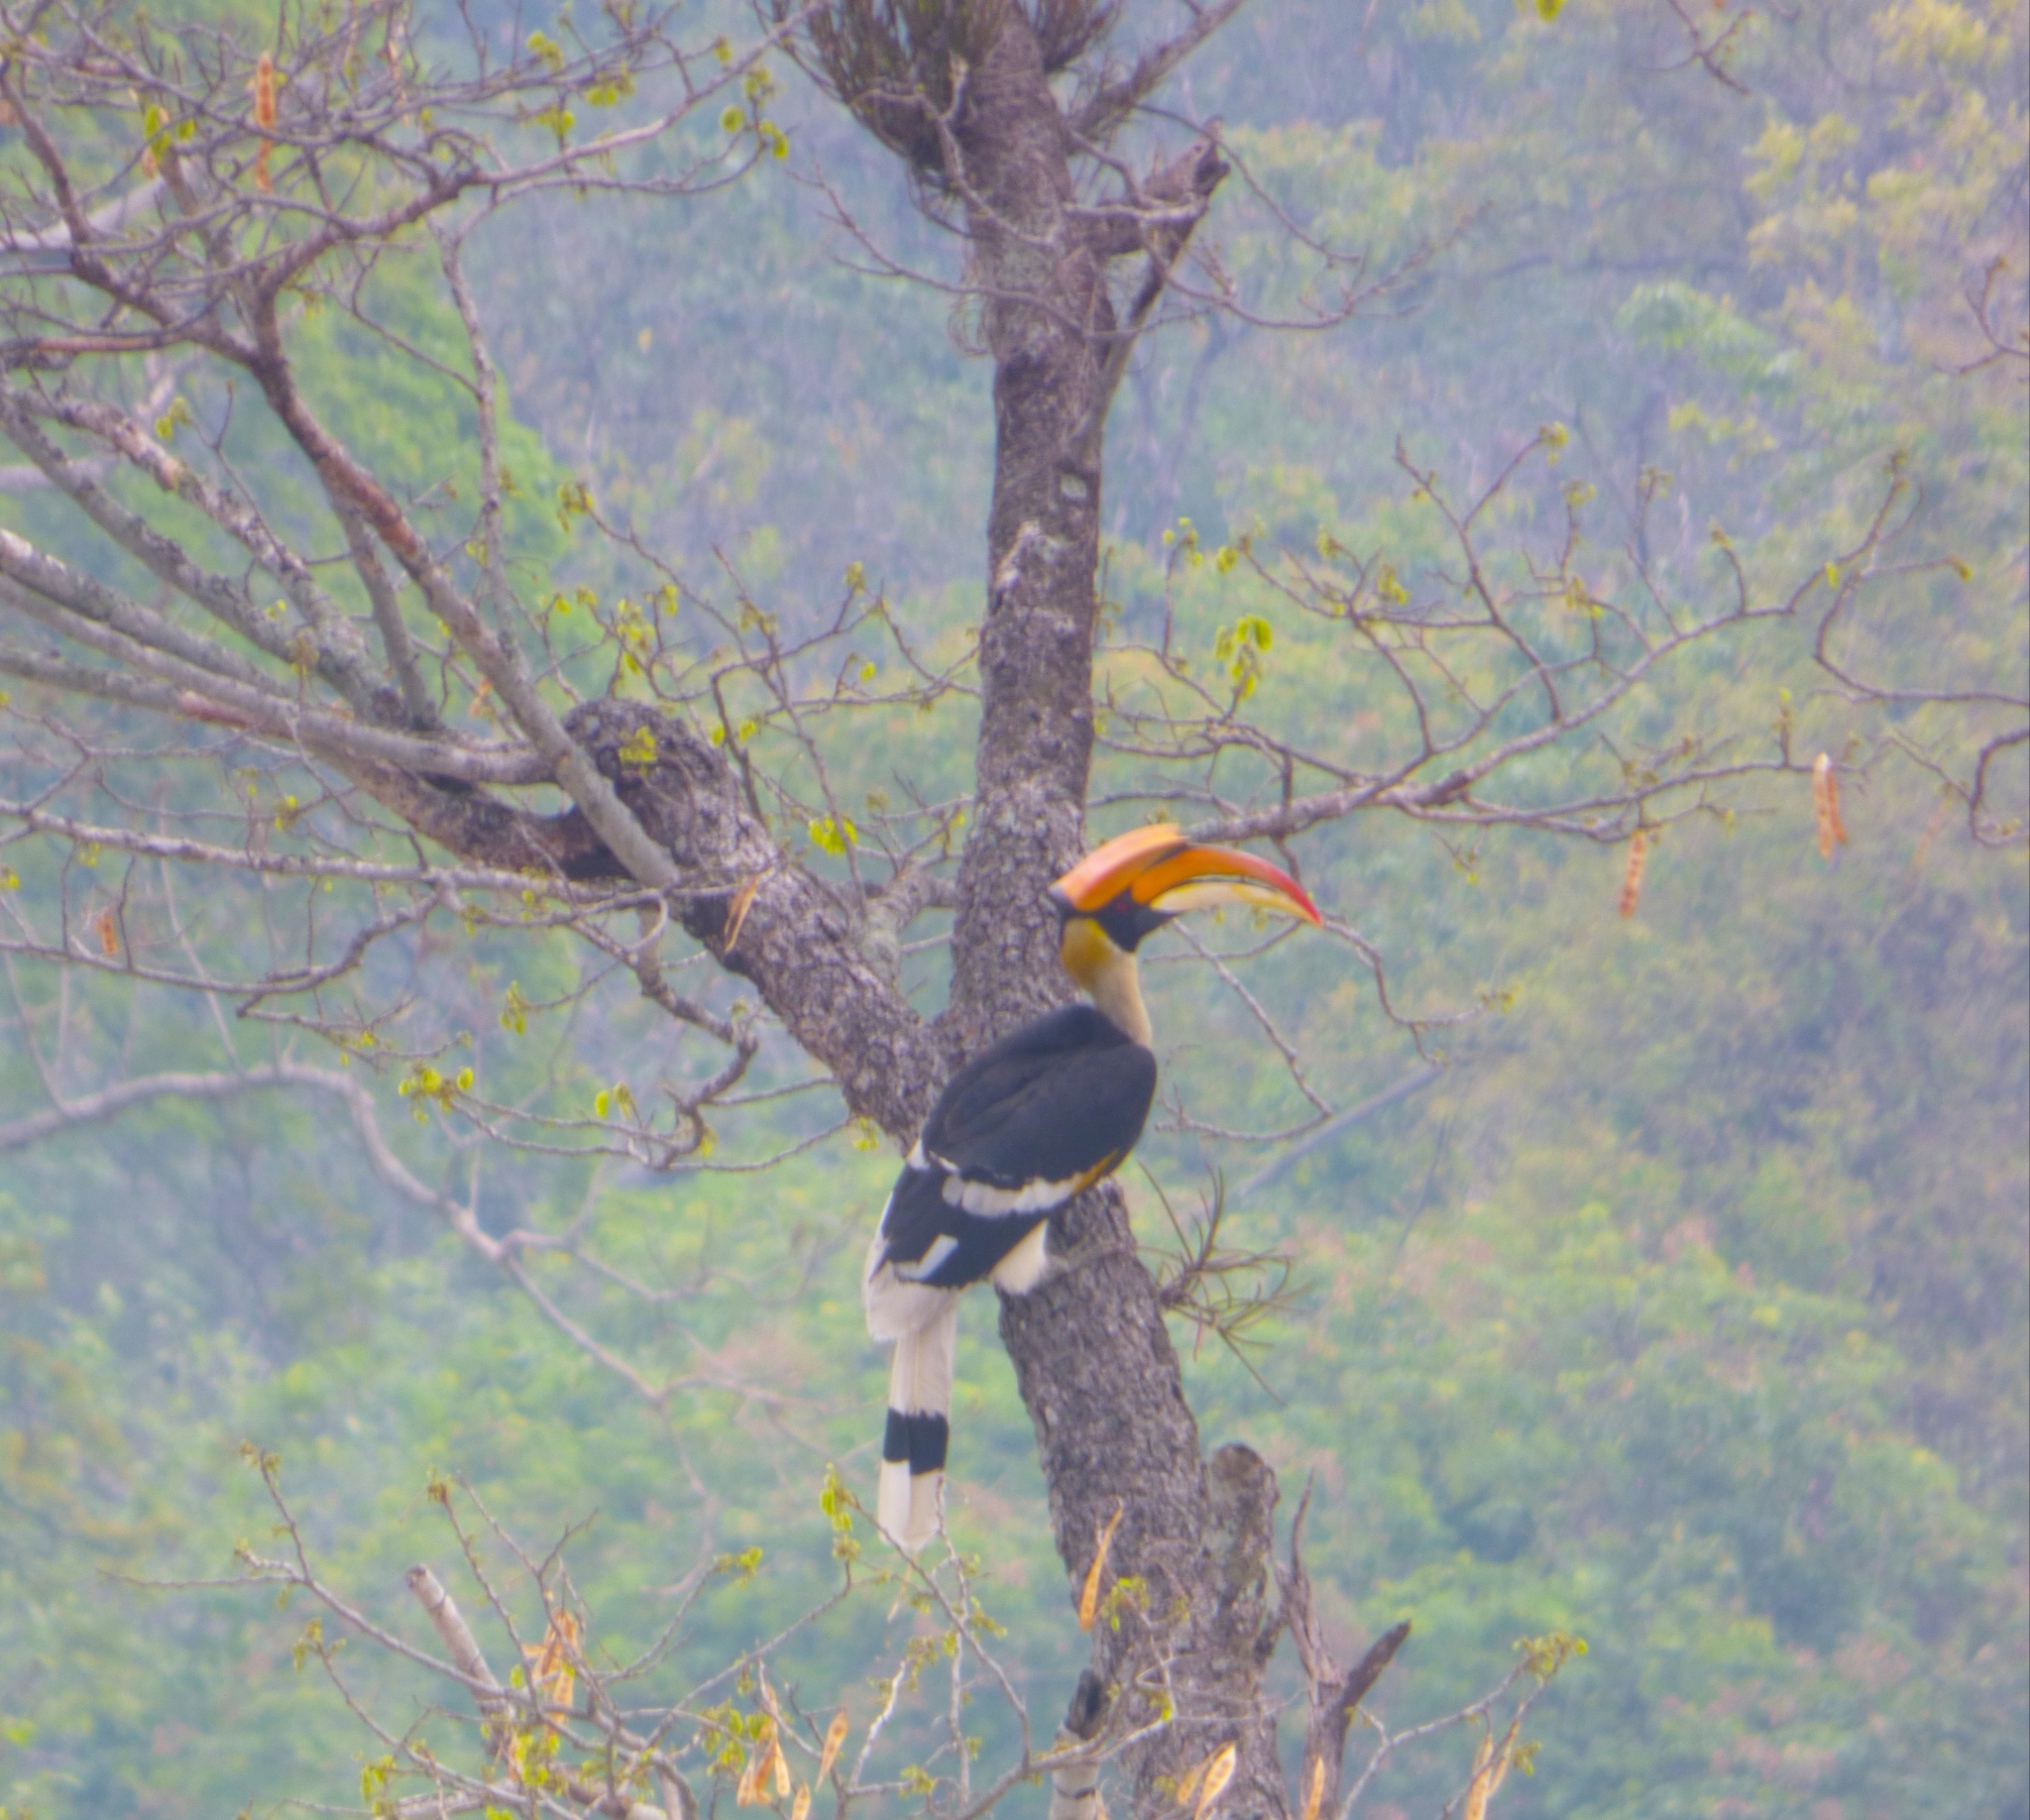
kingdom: Animalia
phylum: Chordata
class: Aves
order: Bucerotiformes
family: Bucerotidae
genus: Buceros
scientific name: Buceros bicornis
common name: Great hornbill
